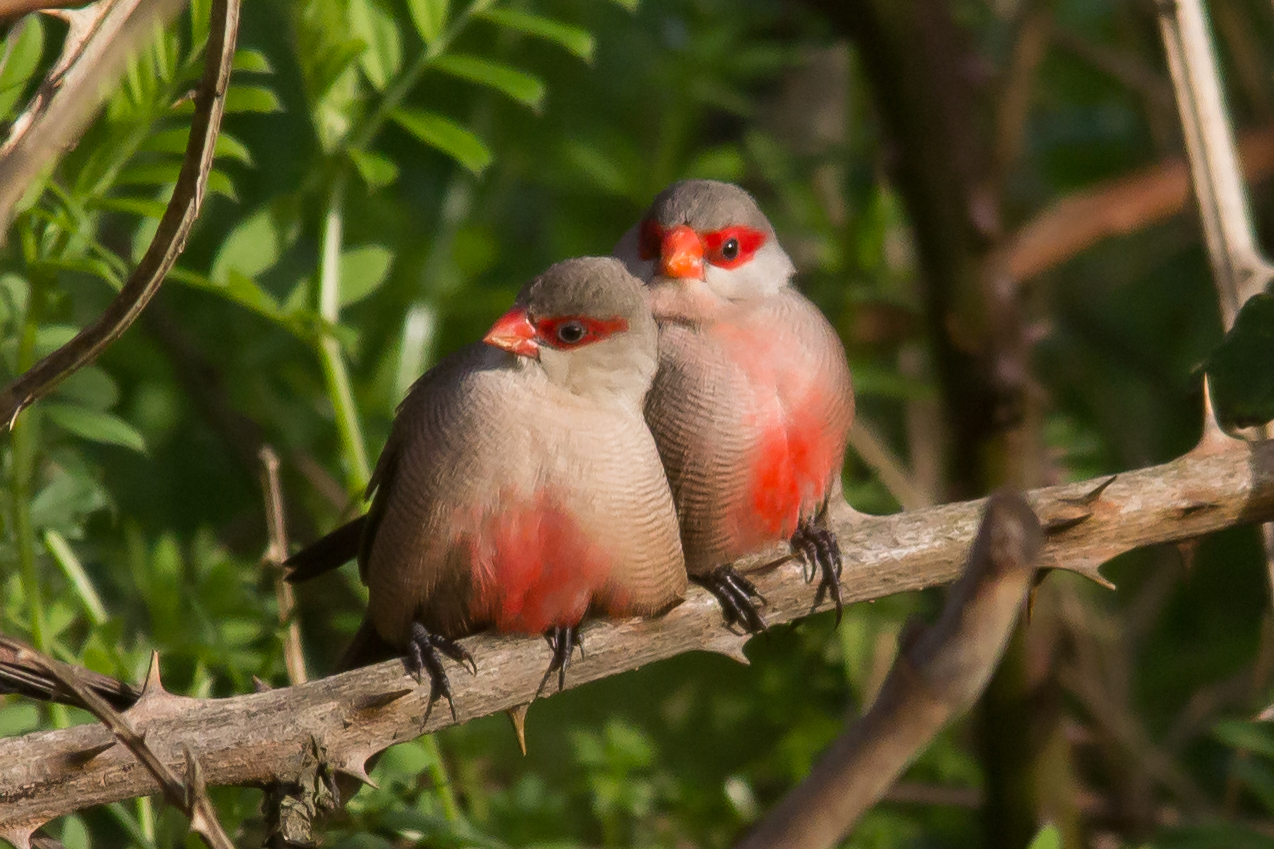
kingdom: Animalia
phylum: Chordata
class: Aves
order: Passeriformes
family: Estrildidae
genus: Estrilda
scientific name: Estrilda astrild
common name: Common waxbill
